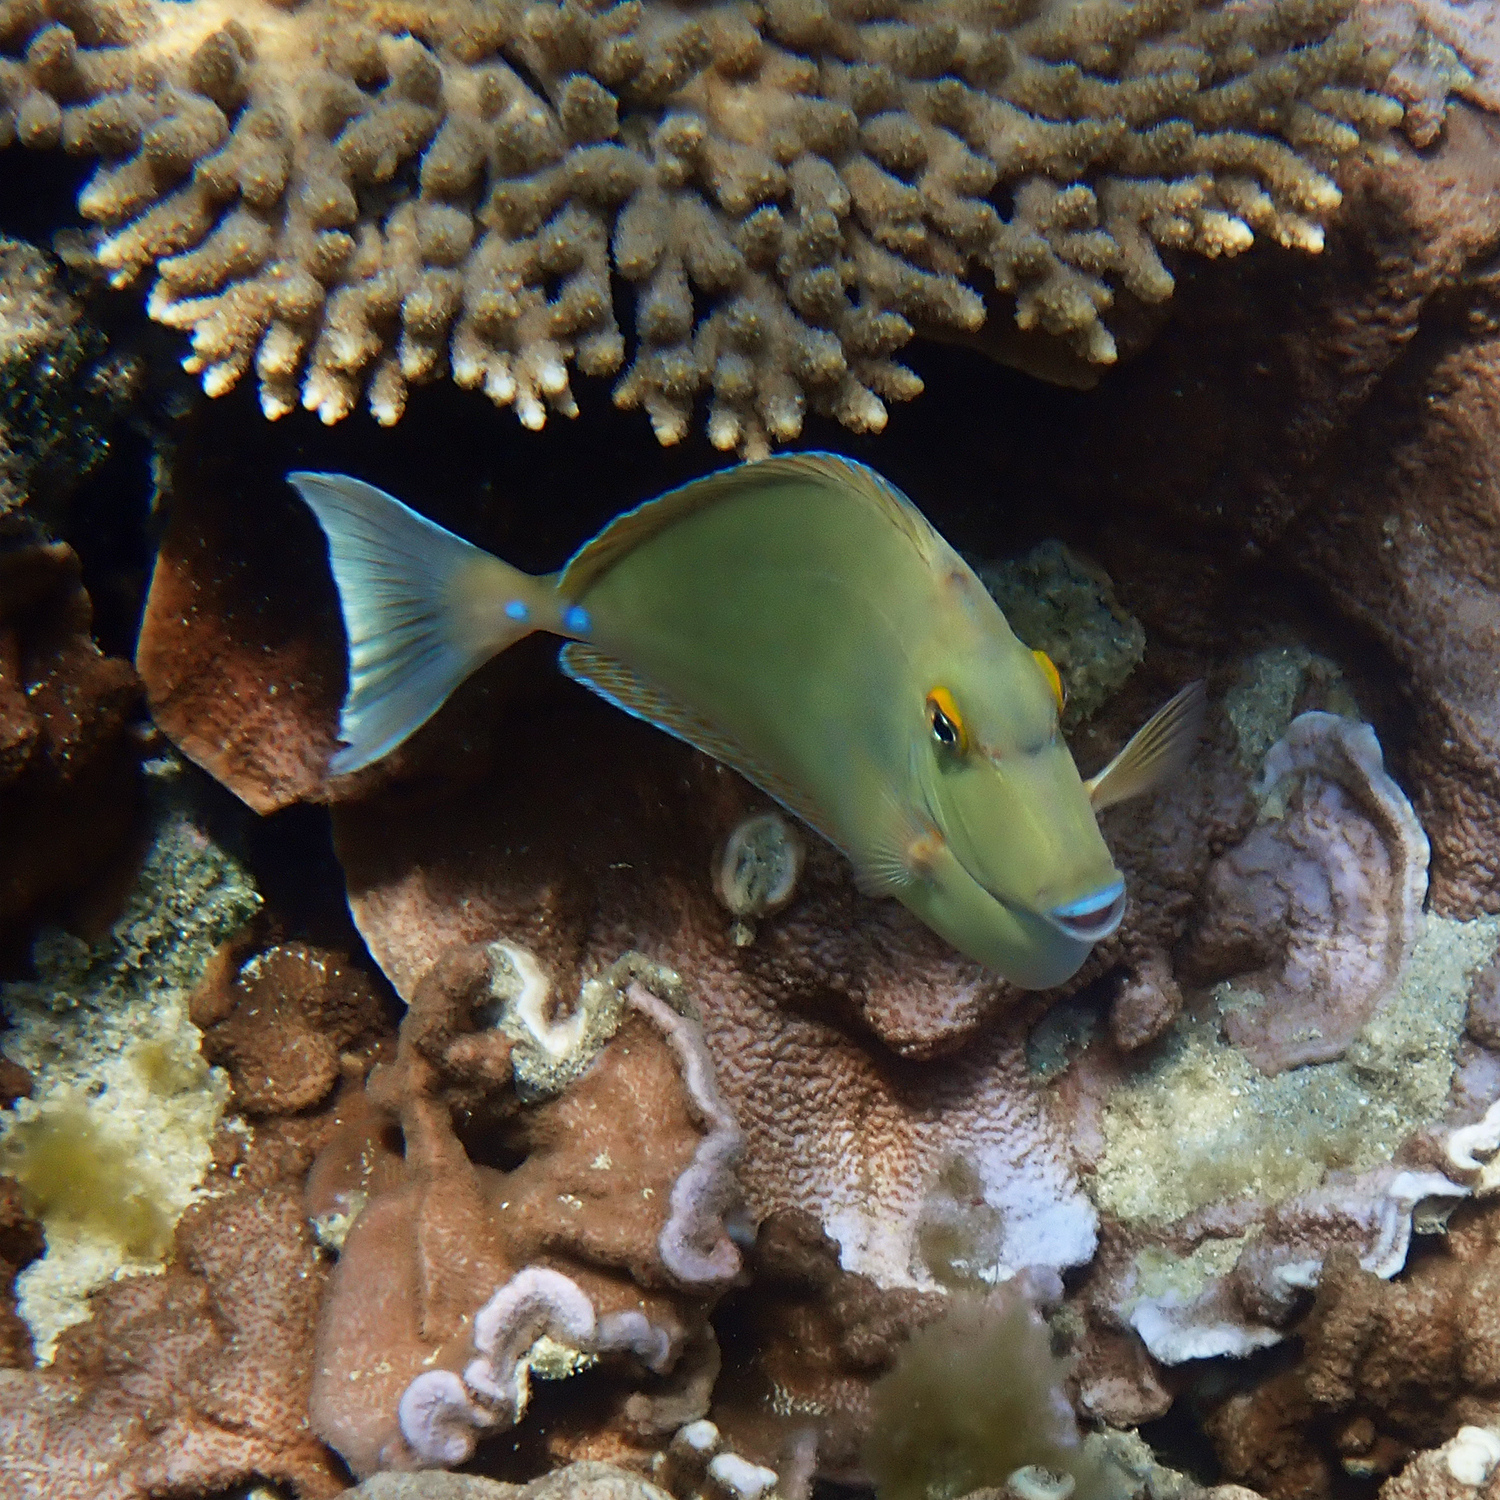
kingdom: Animalia
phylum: Chordata
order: Perciformes
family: Acanthuridae
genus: Naso
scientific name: Naso unicornis
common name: Bluespine unicornfish
